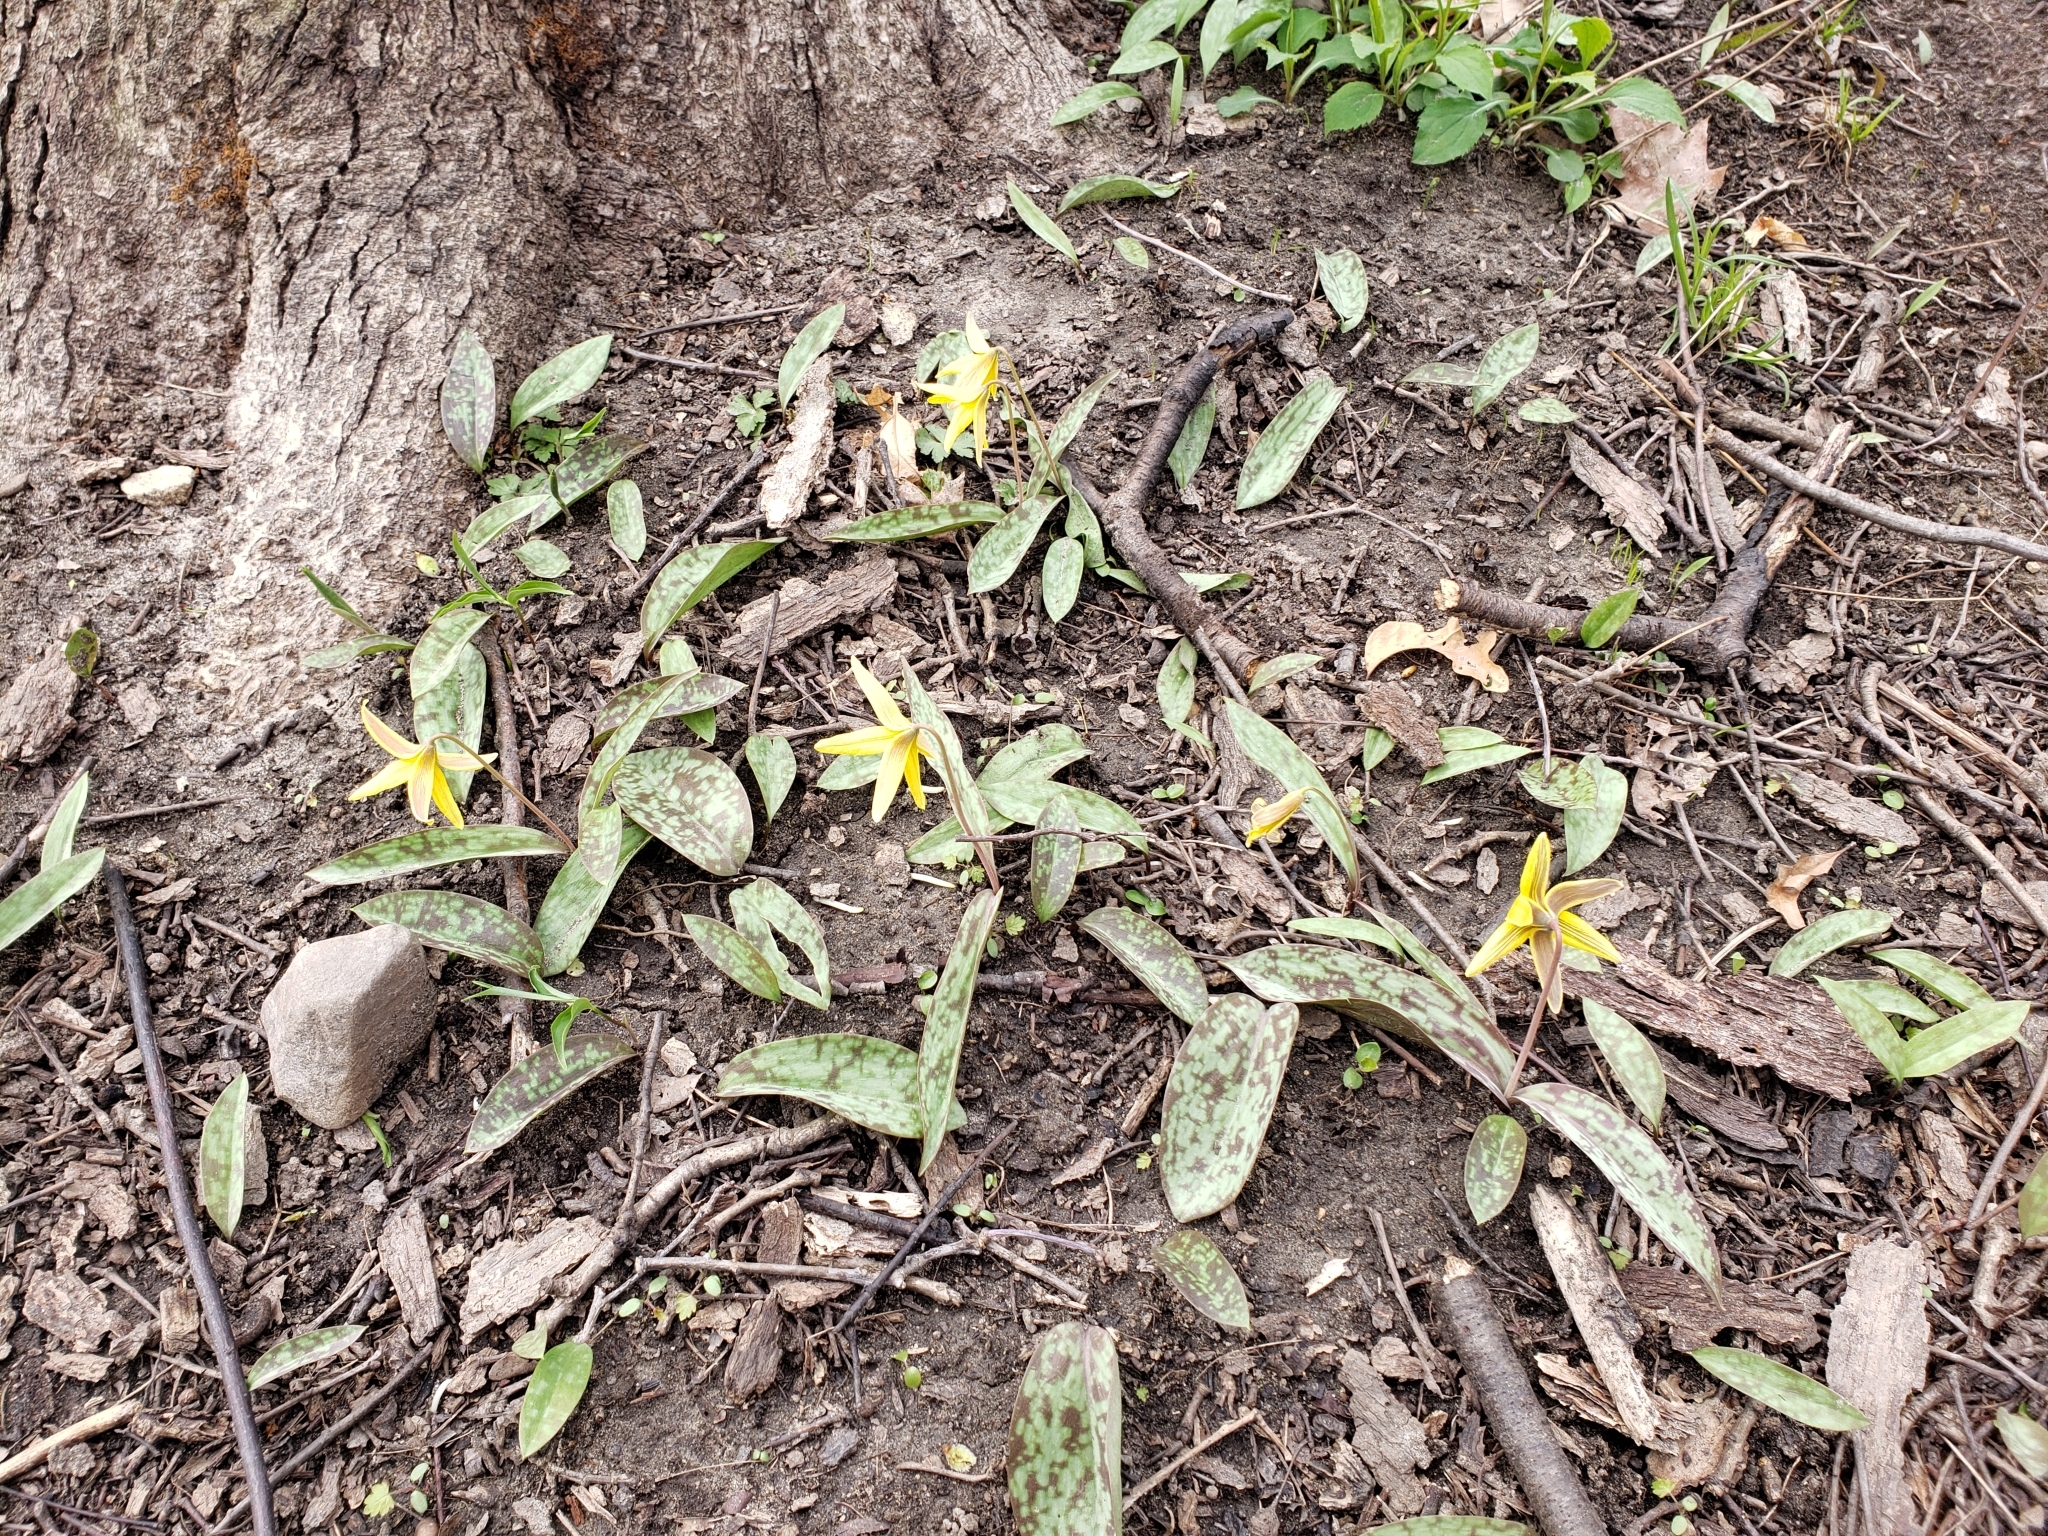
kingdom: Plantae
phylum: Tracheophyta
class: Liliopsida
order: Liliales
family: Liliaceae
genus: Erythronium
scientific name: Erythronium americanum
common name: Yellow adder's-tongue
